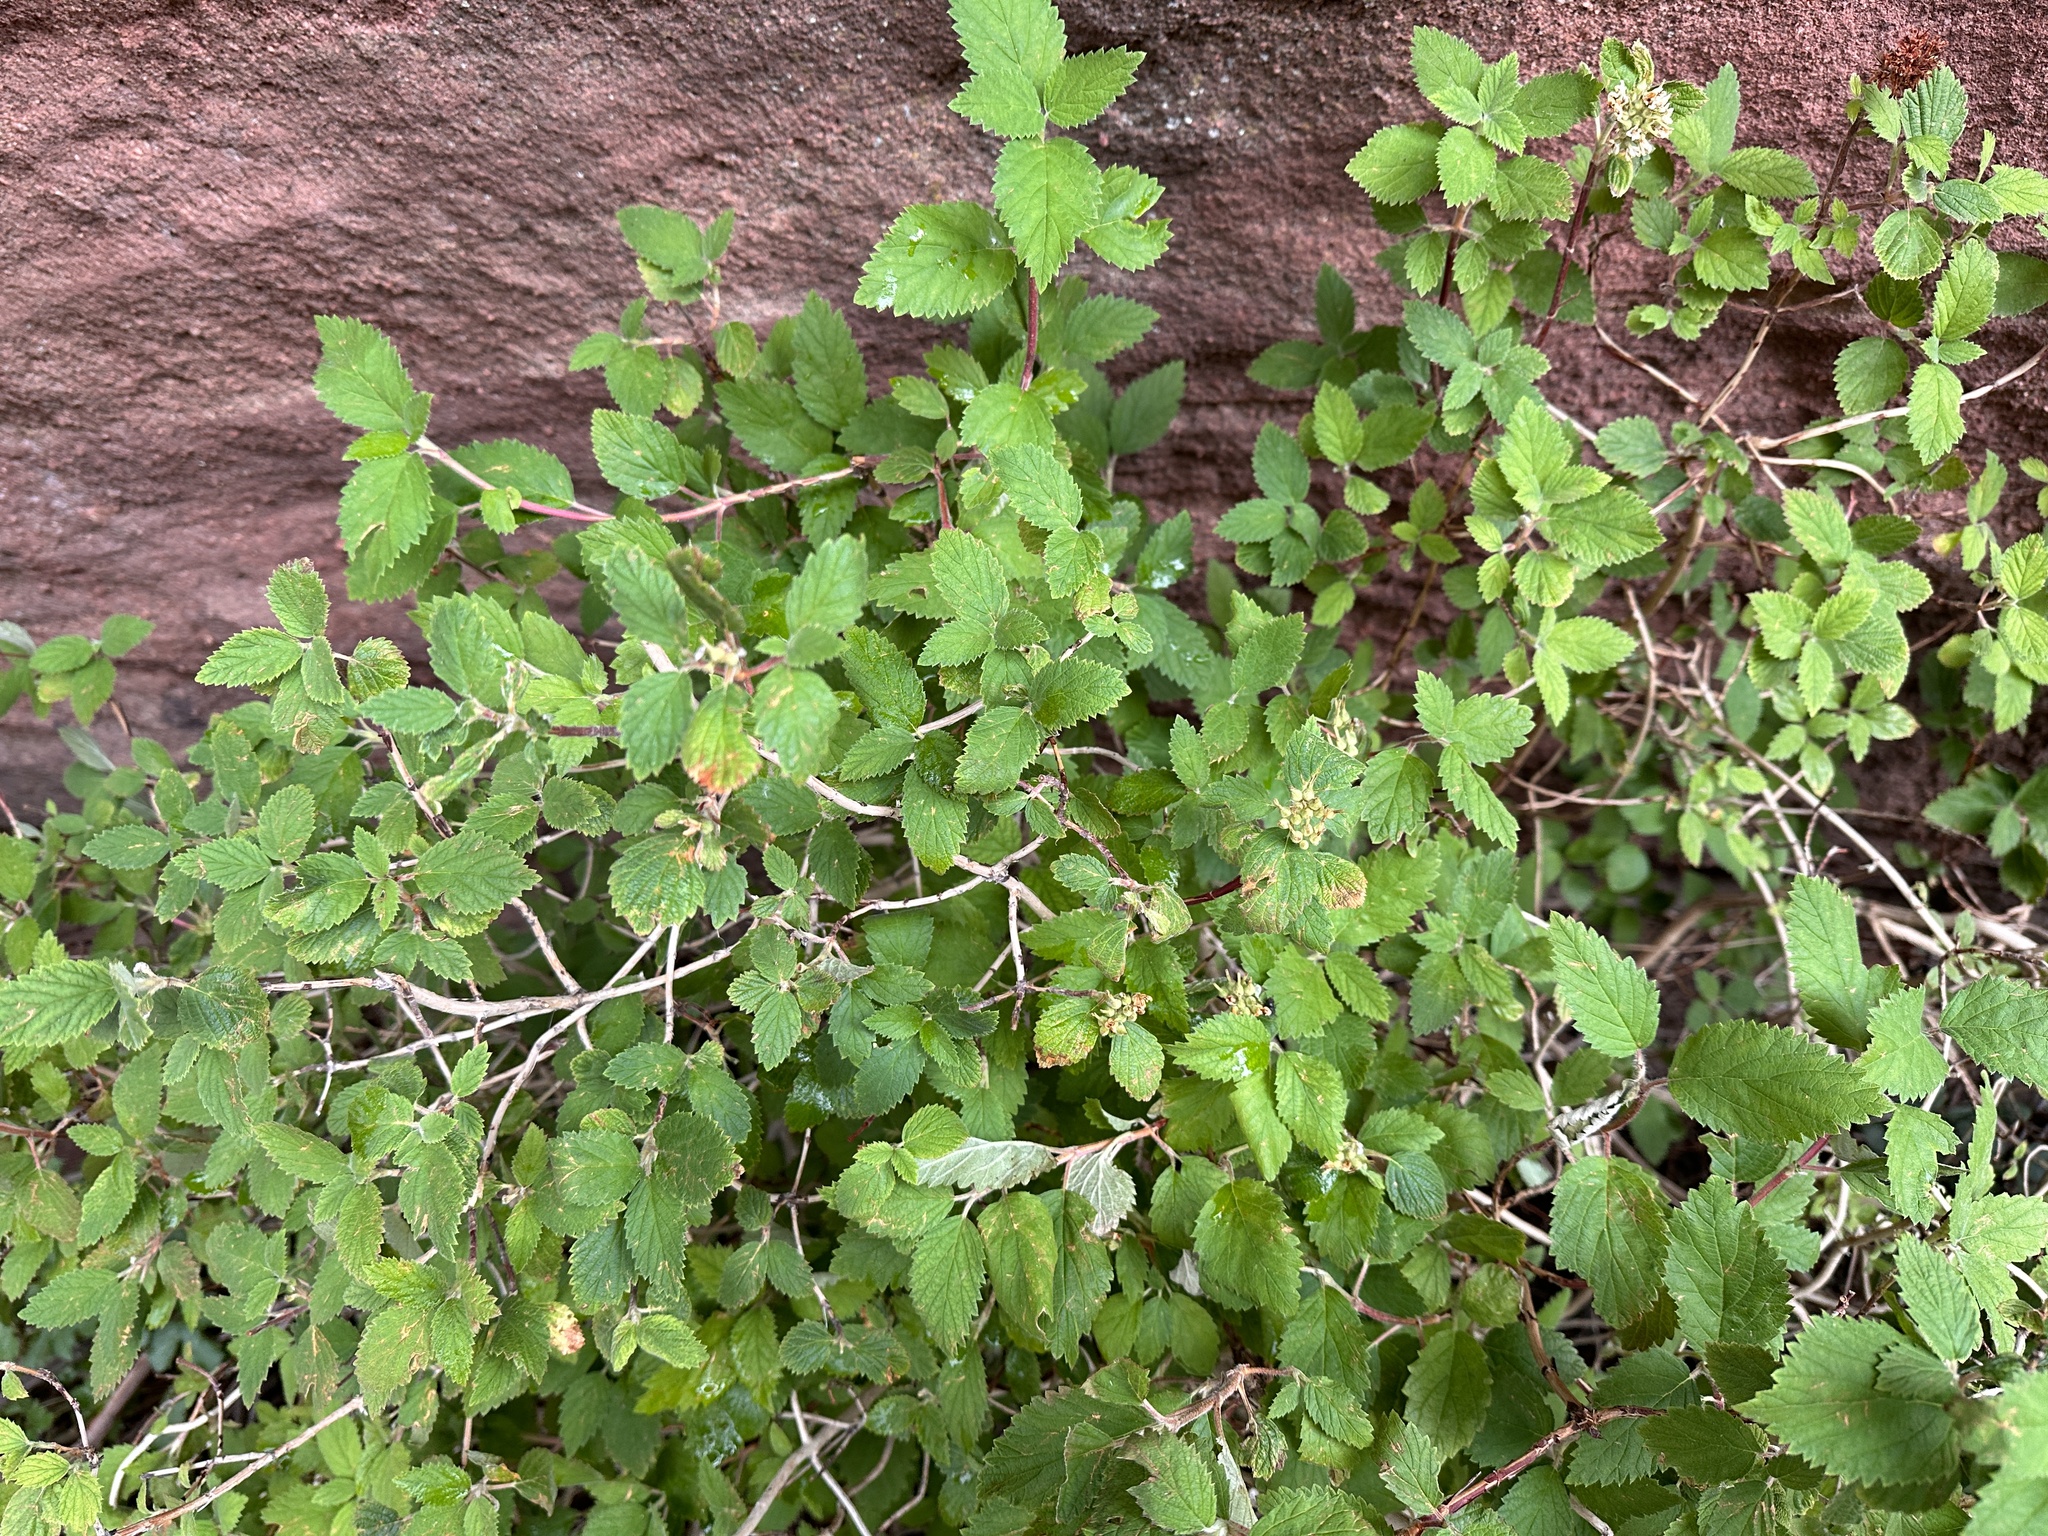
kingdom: Plantae
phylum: Tracheophyta
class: Magnoliopsida
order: Cornales
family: Hydrangeaceae
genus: Jamesia
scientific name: Jamesia americana
